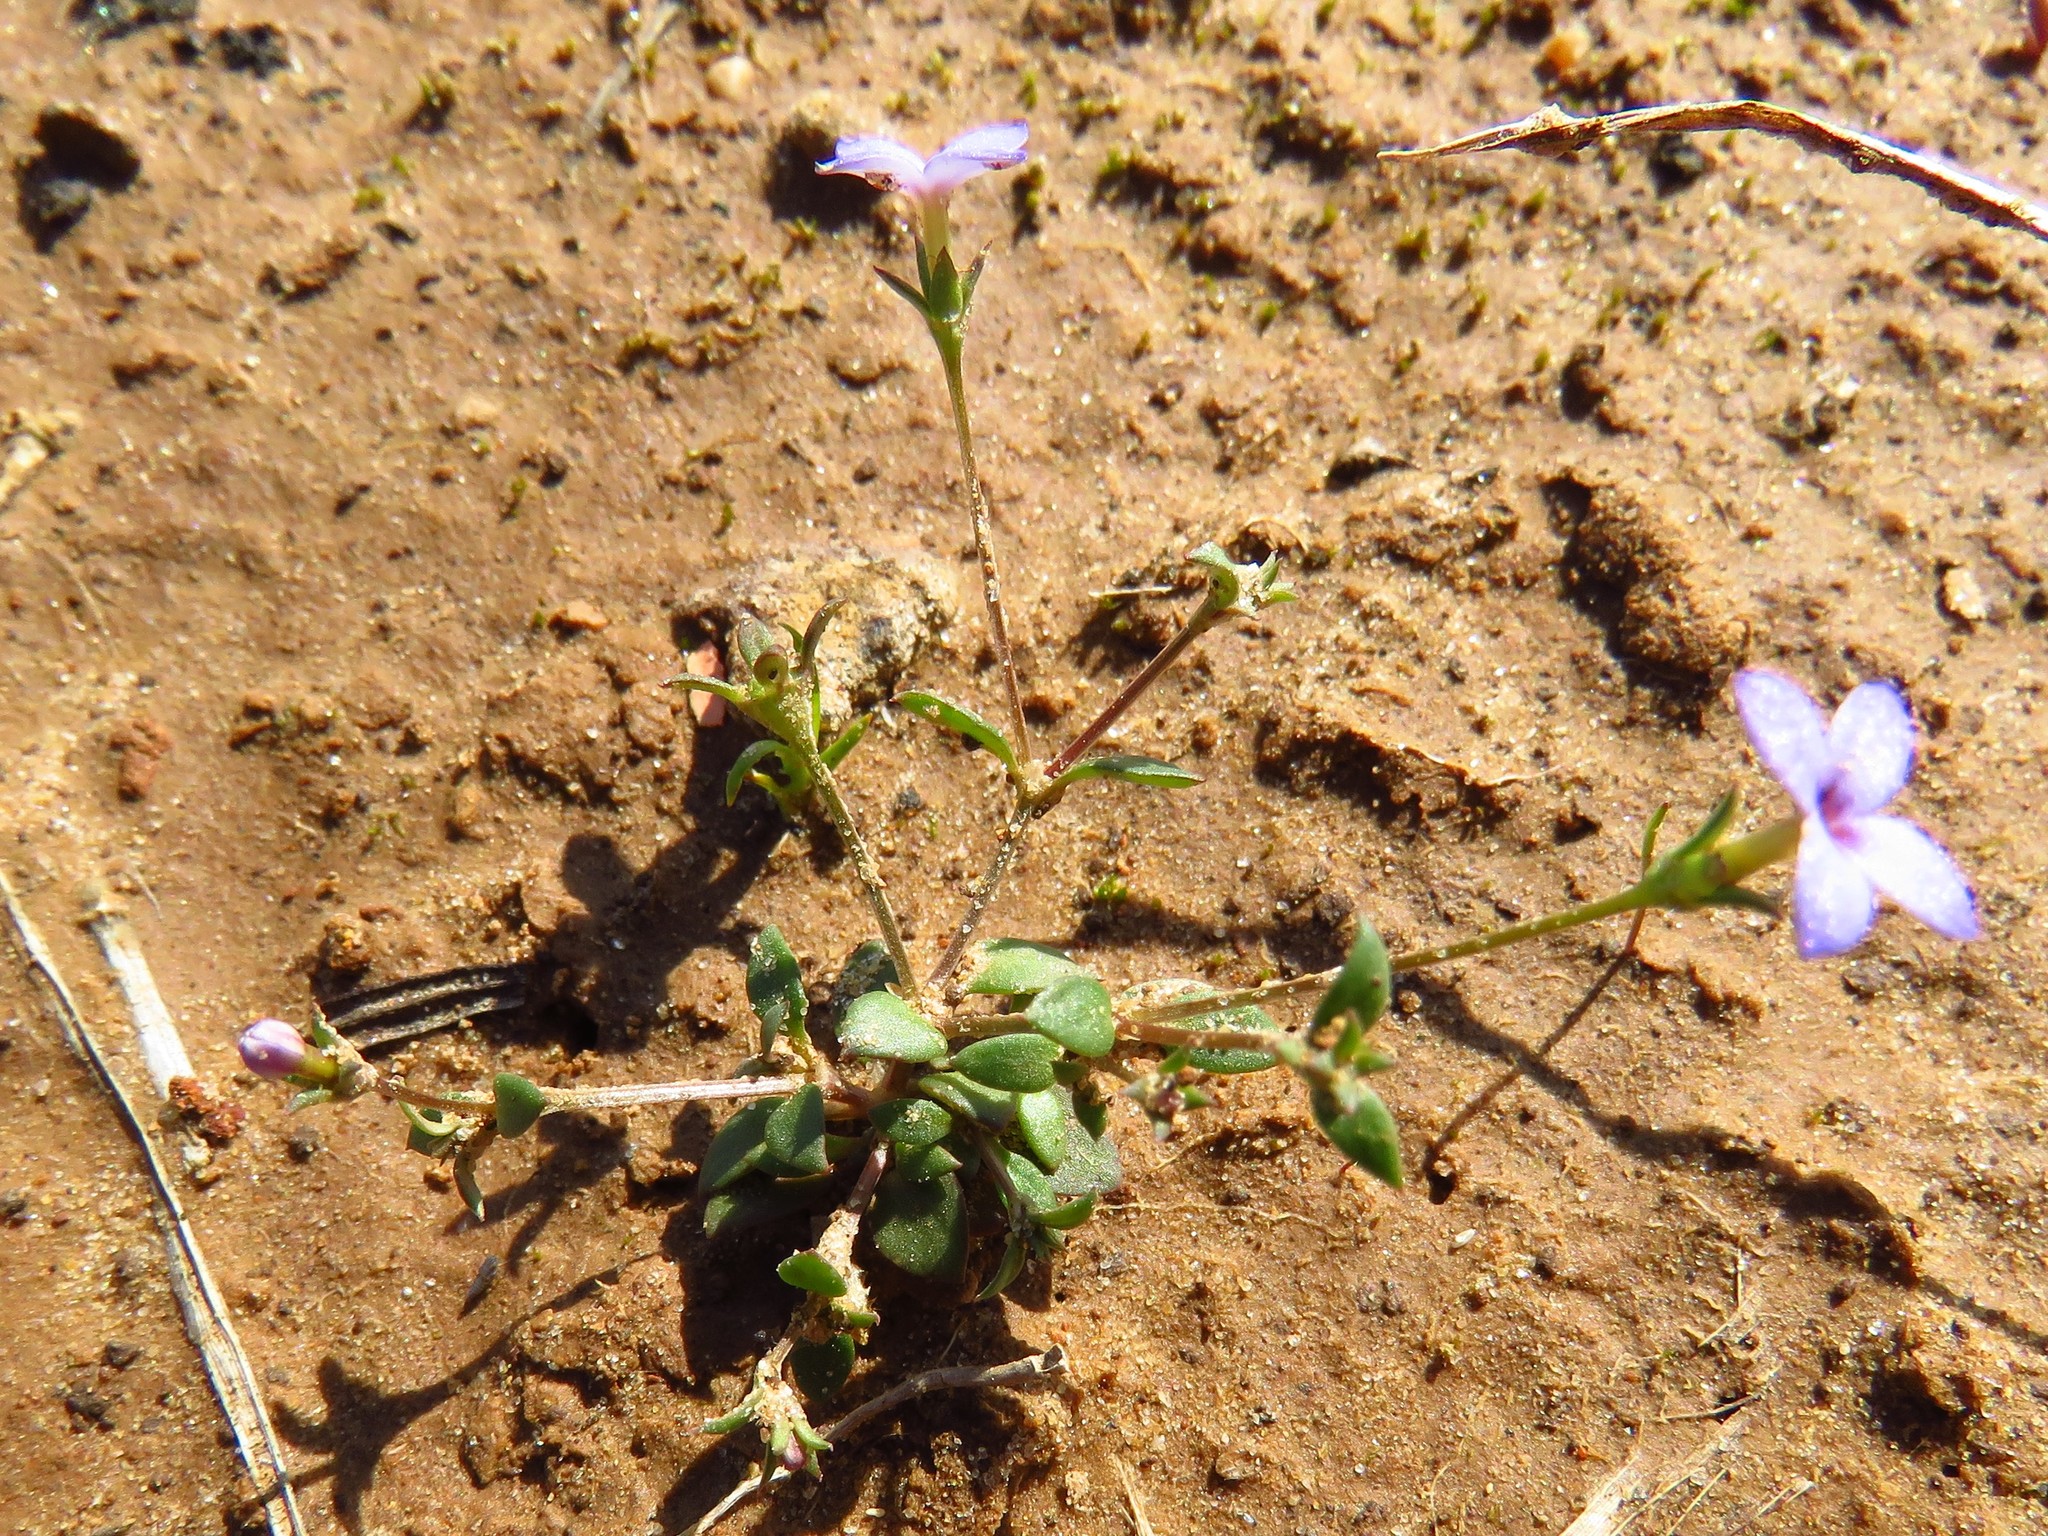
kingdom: Plantae
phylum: Tracheophyta
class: Magnoliopsida
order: Gentianales
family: Rubiaceae
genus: Houstonia
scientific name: Houstonia pusilla
